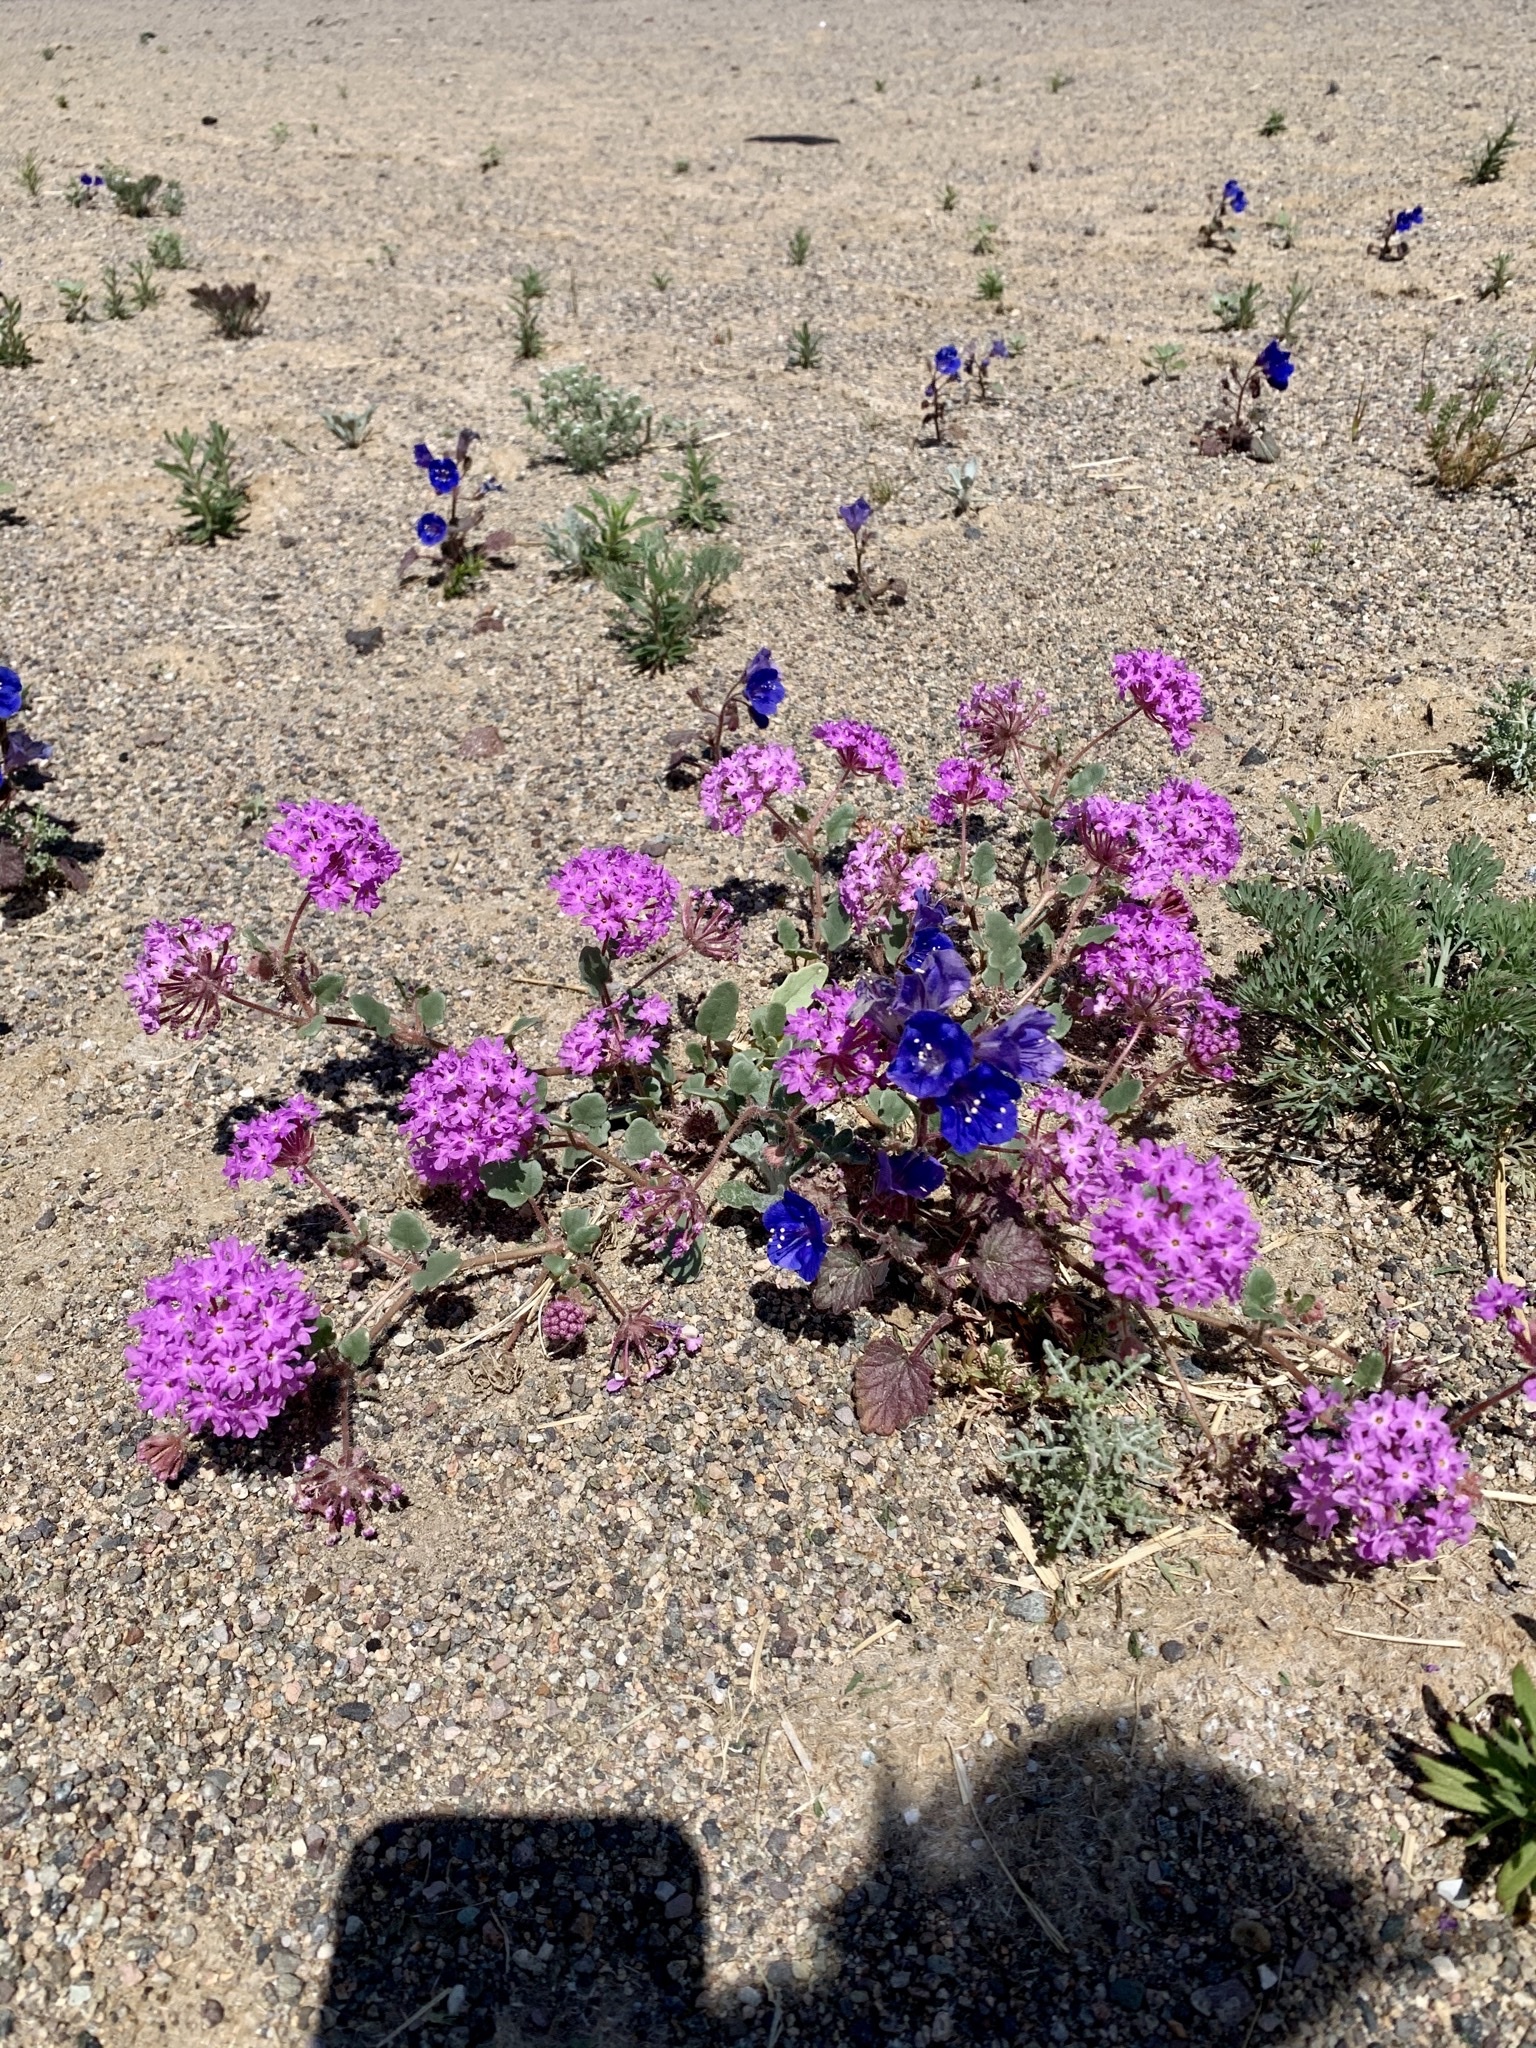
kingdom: Plantae
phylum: Tracheophyta
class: Magnoliopsida
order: Caryophyllales
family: Nyctaginaceae
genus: Abronia
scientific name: Abronia villosa
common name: Desert sand-verbena
